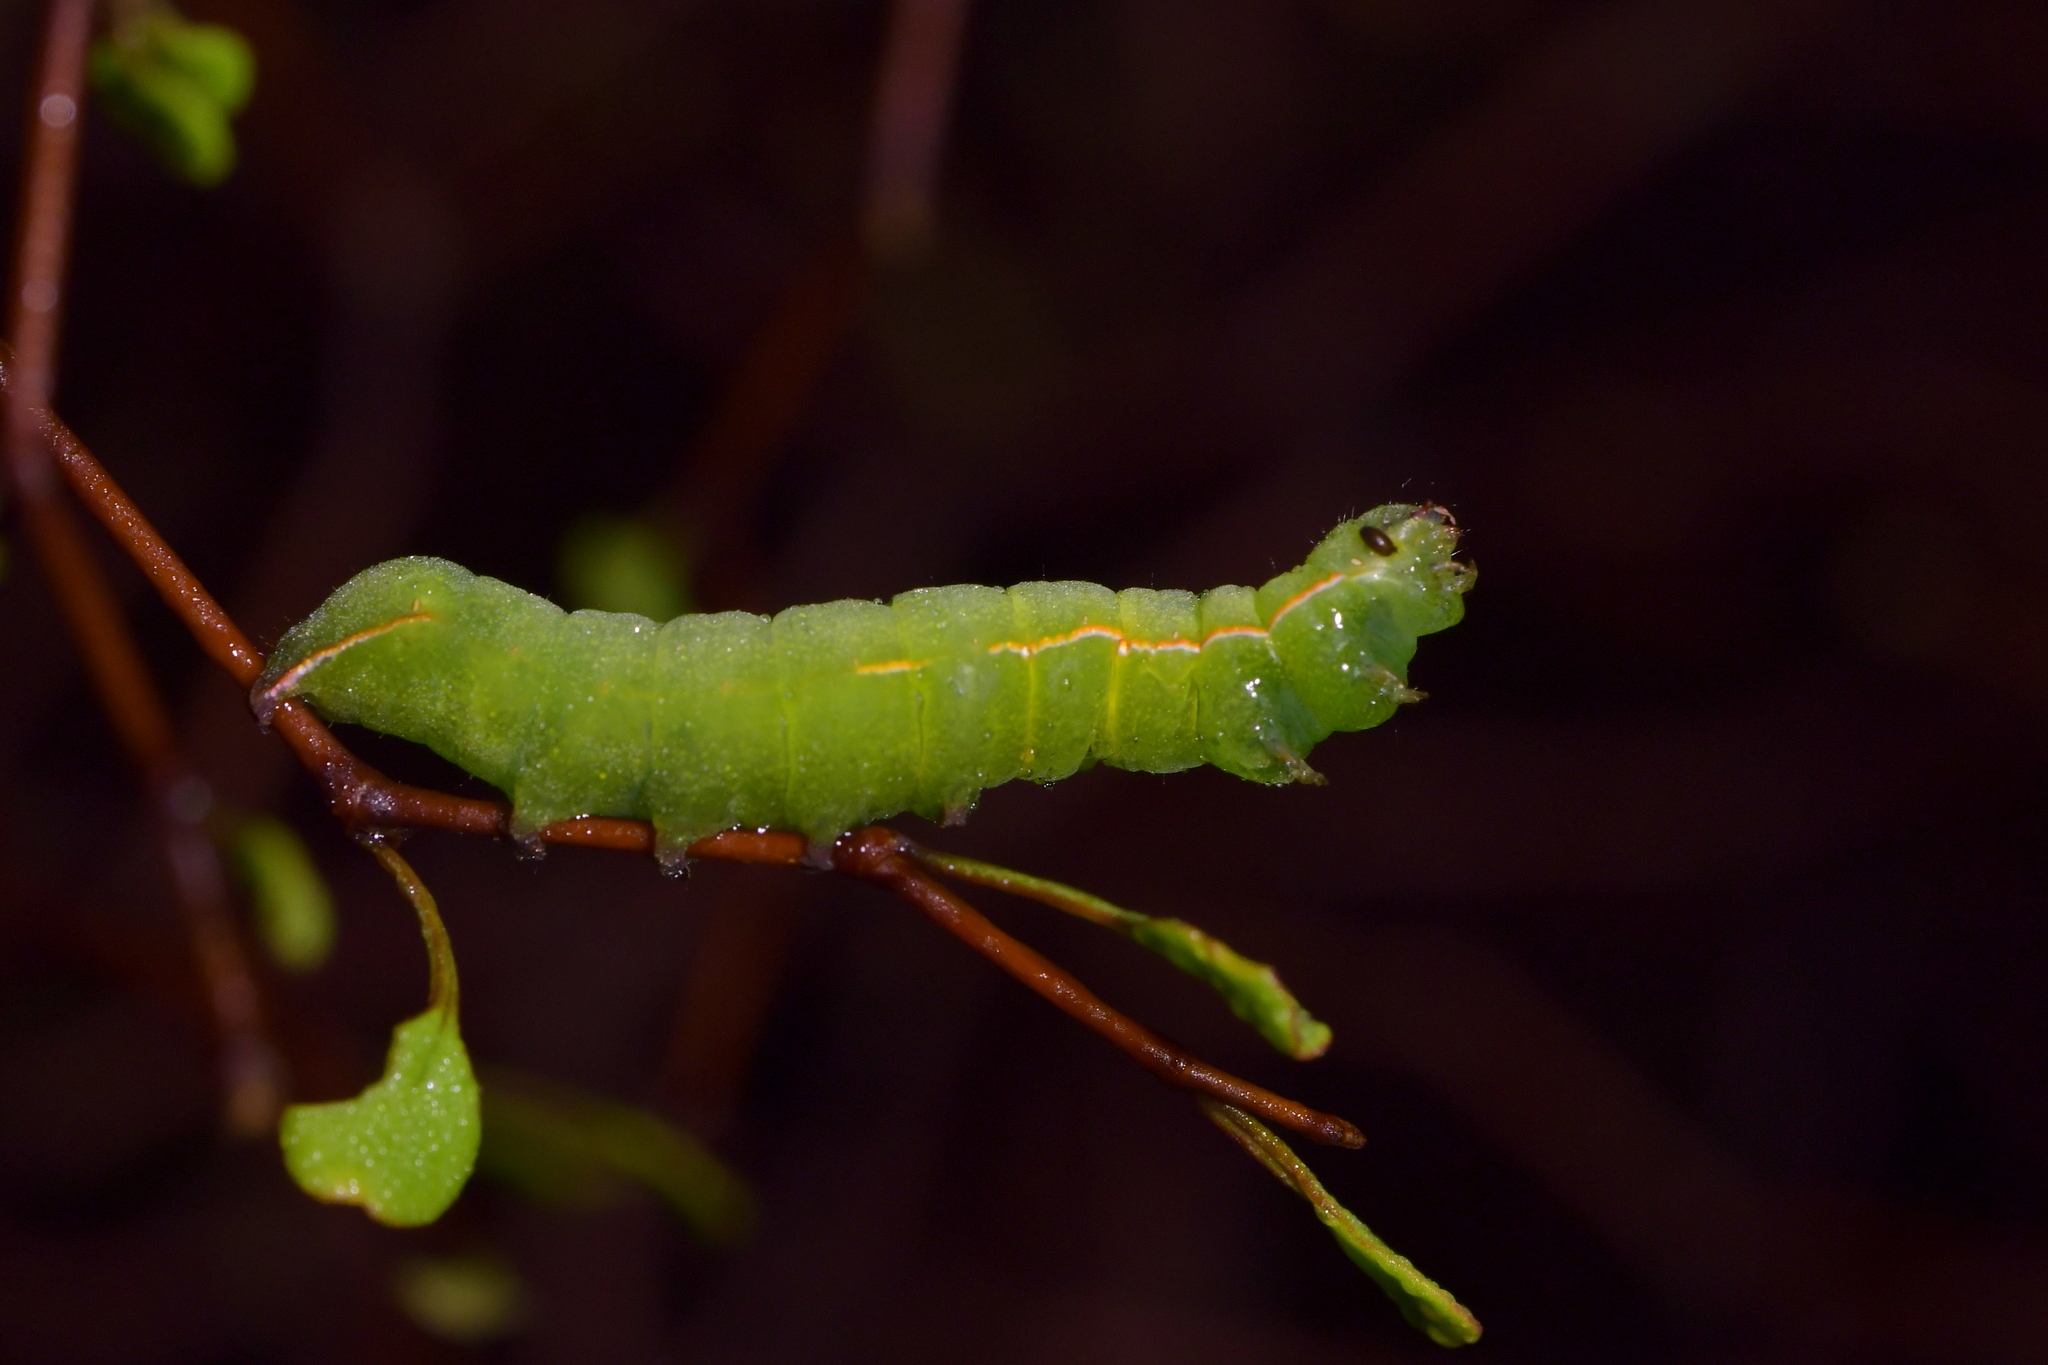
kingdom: Animalia
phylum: Arthropoda
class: Insecta
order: Lepidoptera
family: Noctuidae
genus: Meterana
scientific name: Meterana ochthistis
